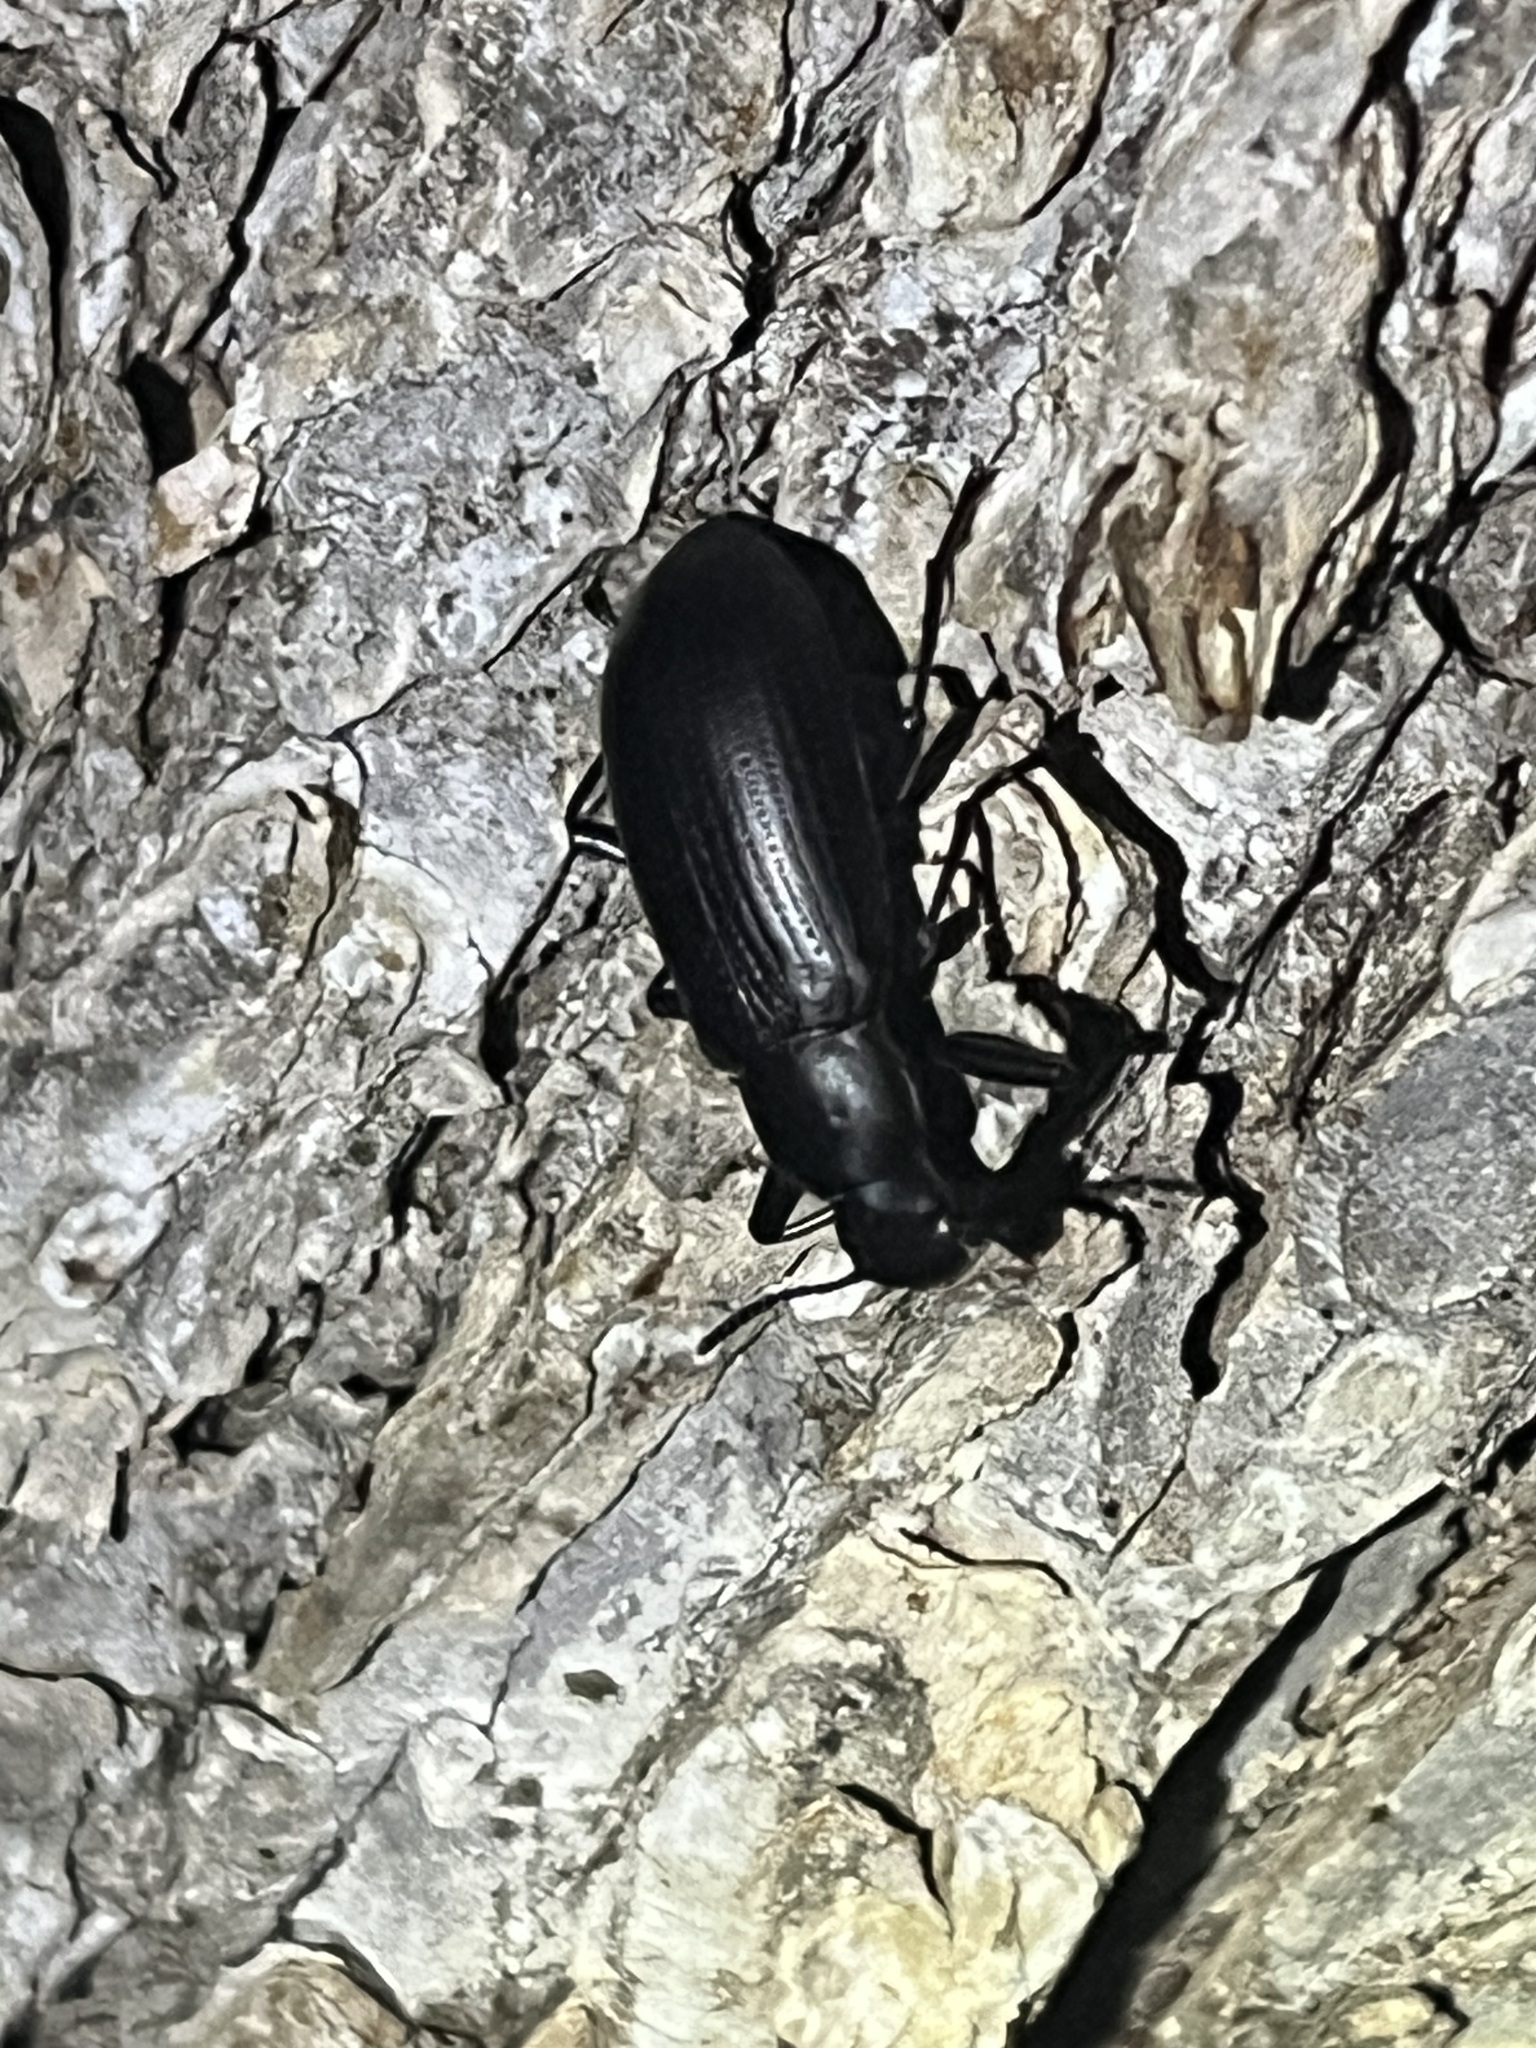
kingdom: Animalia
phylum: Arthropoda
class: Insecta
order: Coleoptera
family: Tenebrionidae
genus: Alobates
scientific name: Alobates
